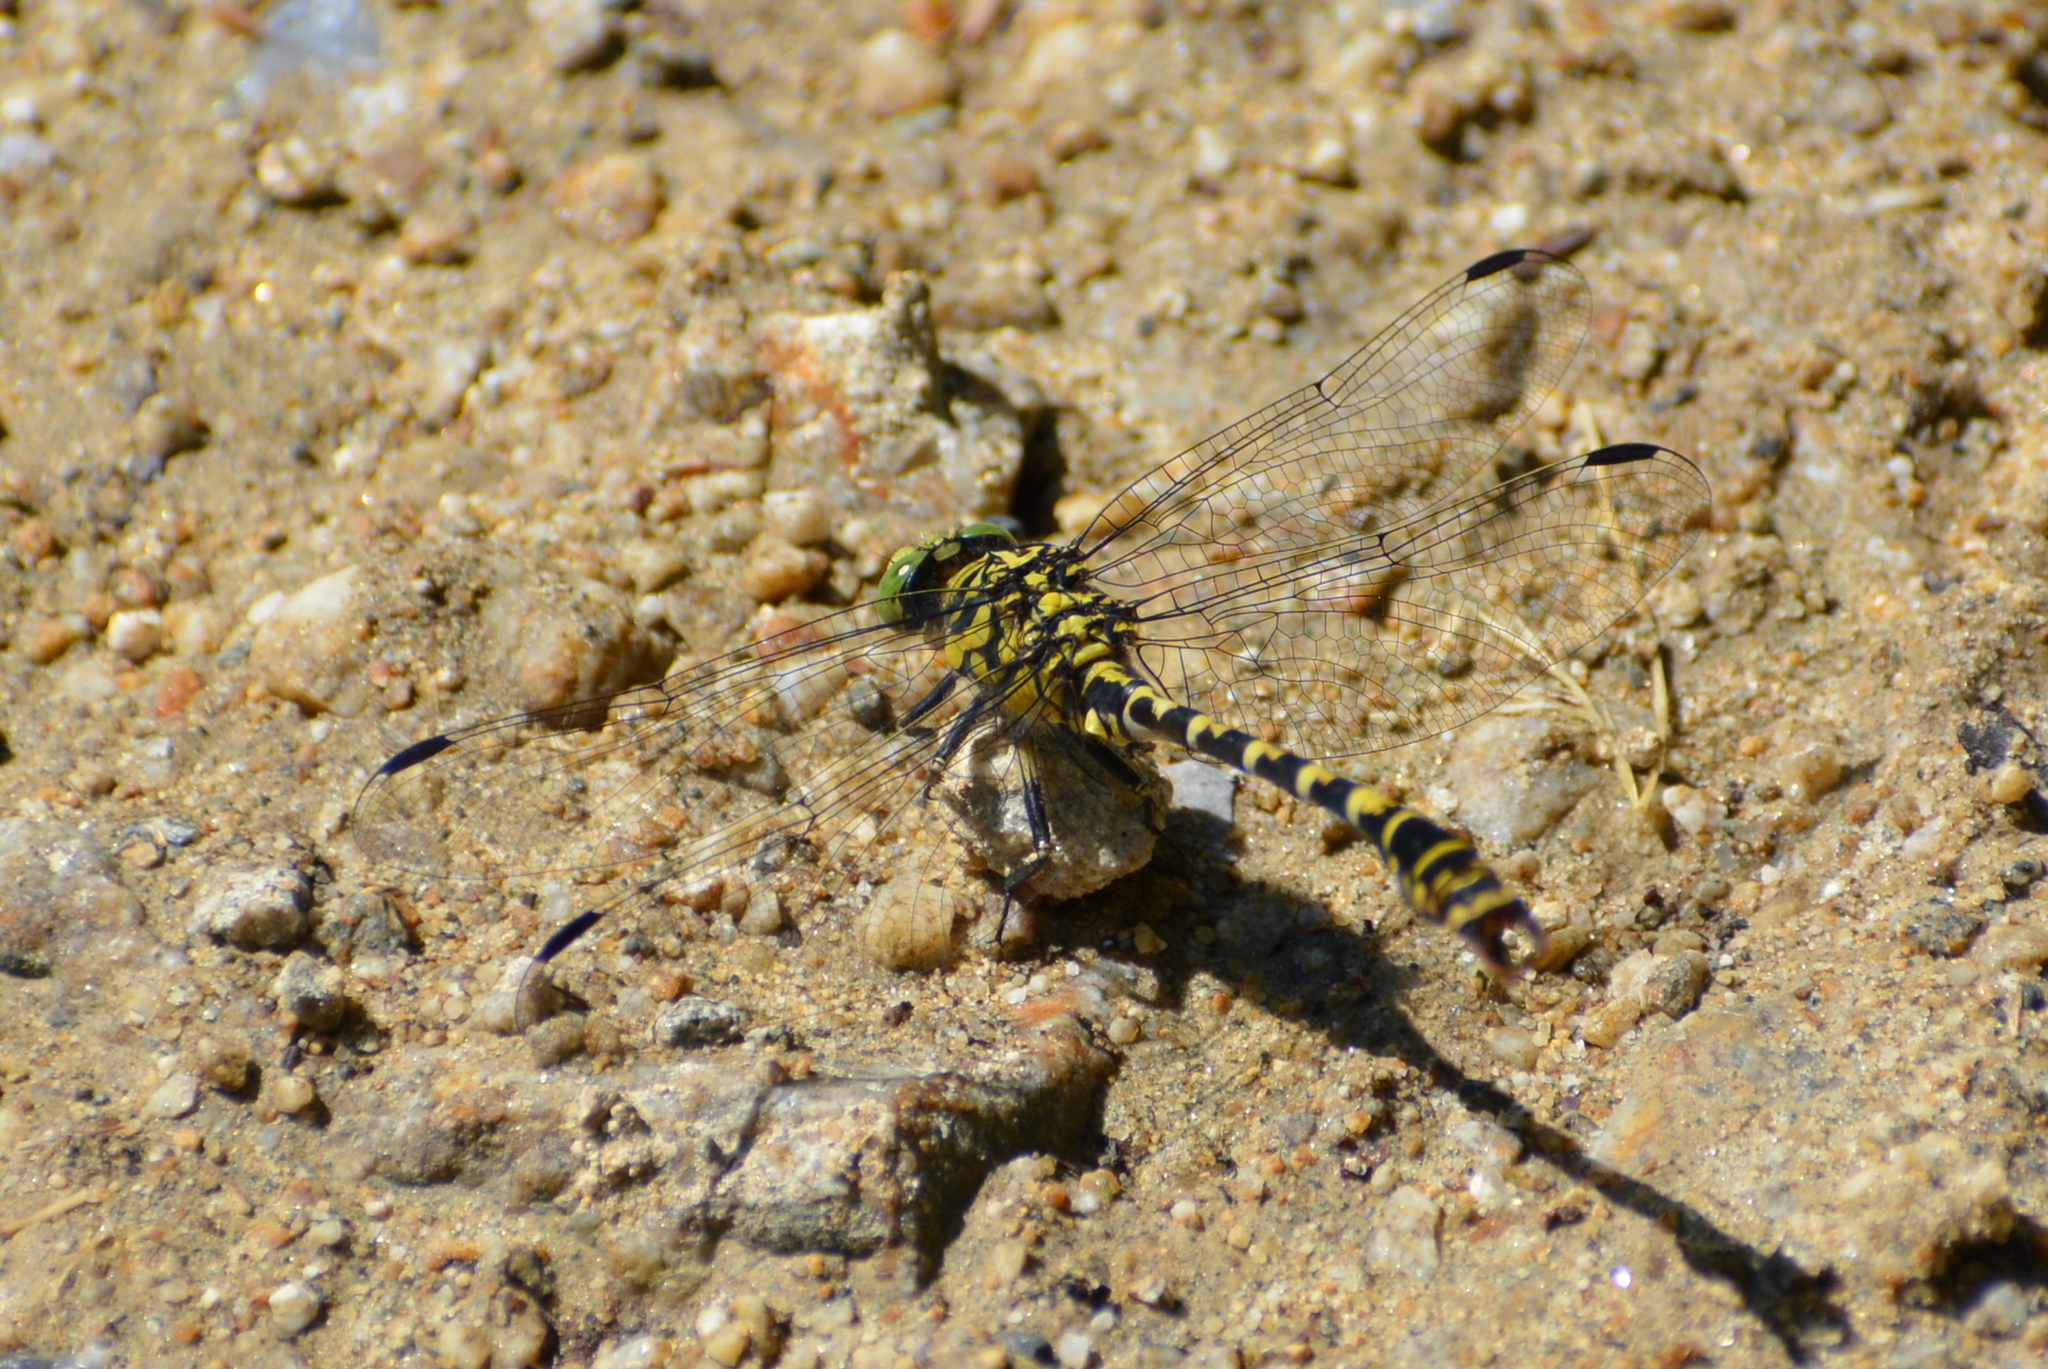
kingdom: Animalia
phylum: Arthropoda
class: Insecta
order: Odonata
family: Gomphidae
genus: Onychogomphus
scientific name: Onychogomphus forcipatus
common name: Small pincertail
